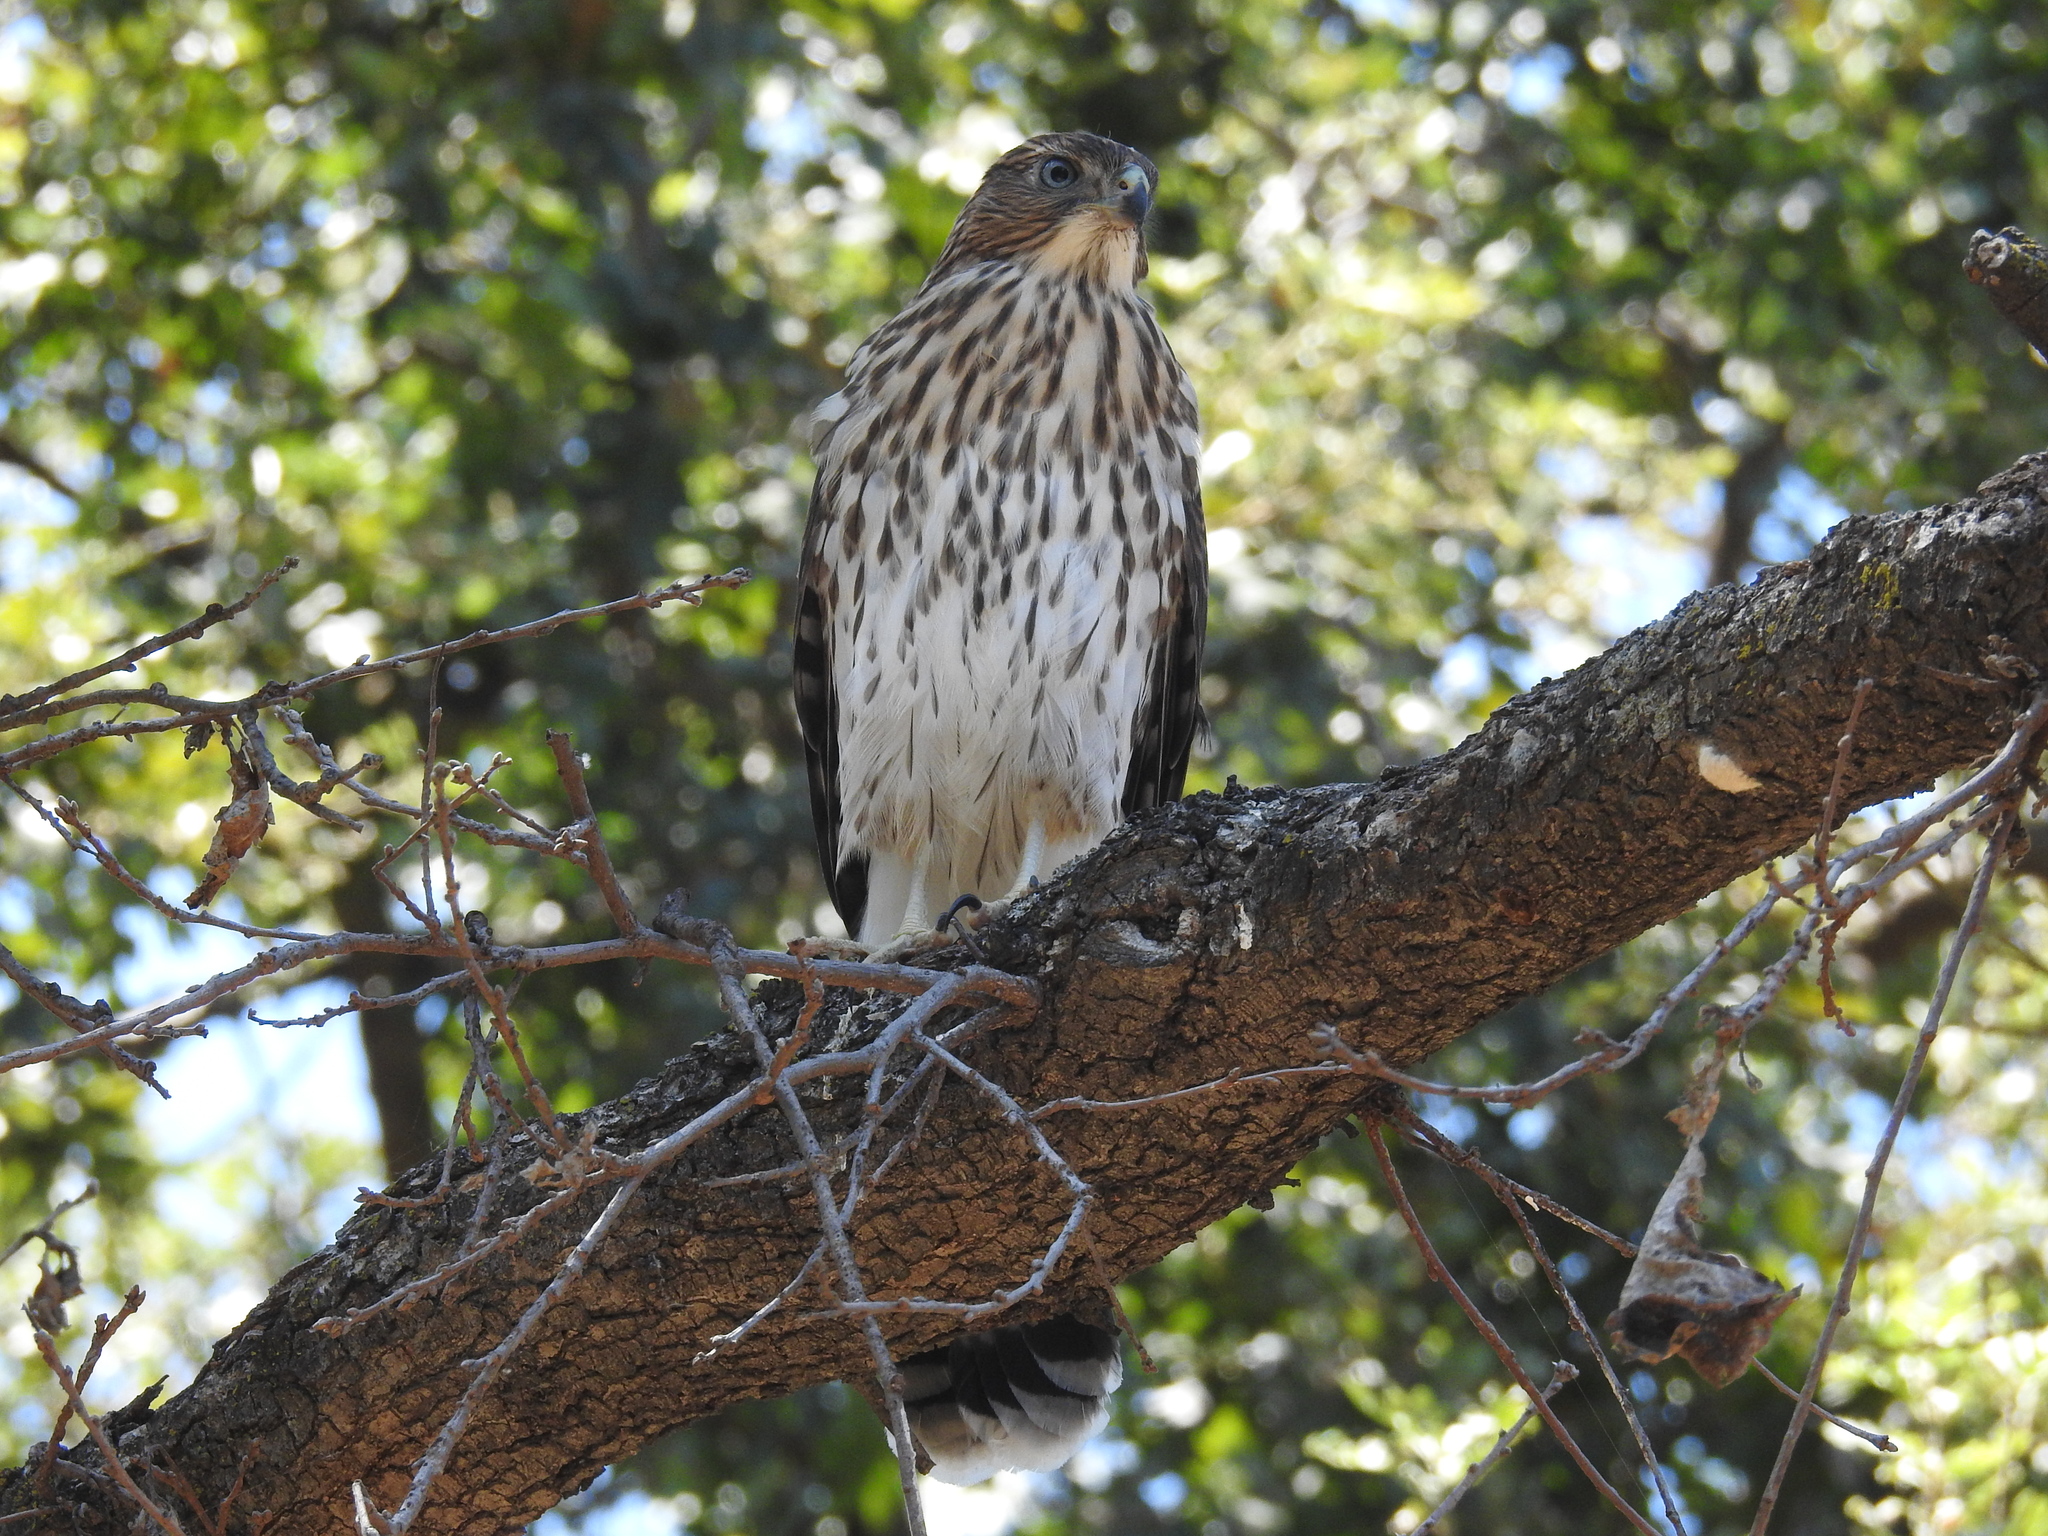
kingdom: Animalia
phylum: Chordata
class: Aves
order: Accipitriformes
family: Accipitridae
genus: Accipiter
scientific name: Accipiter cooperii
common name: Cooper's hawk
